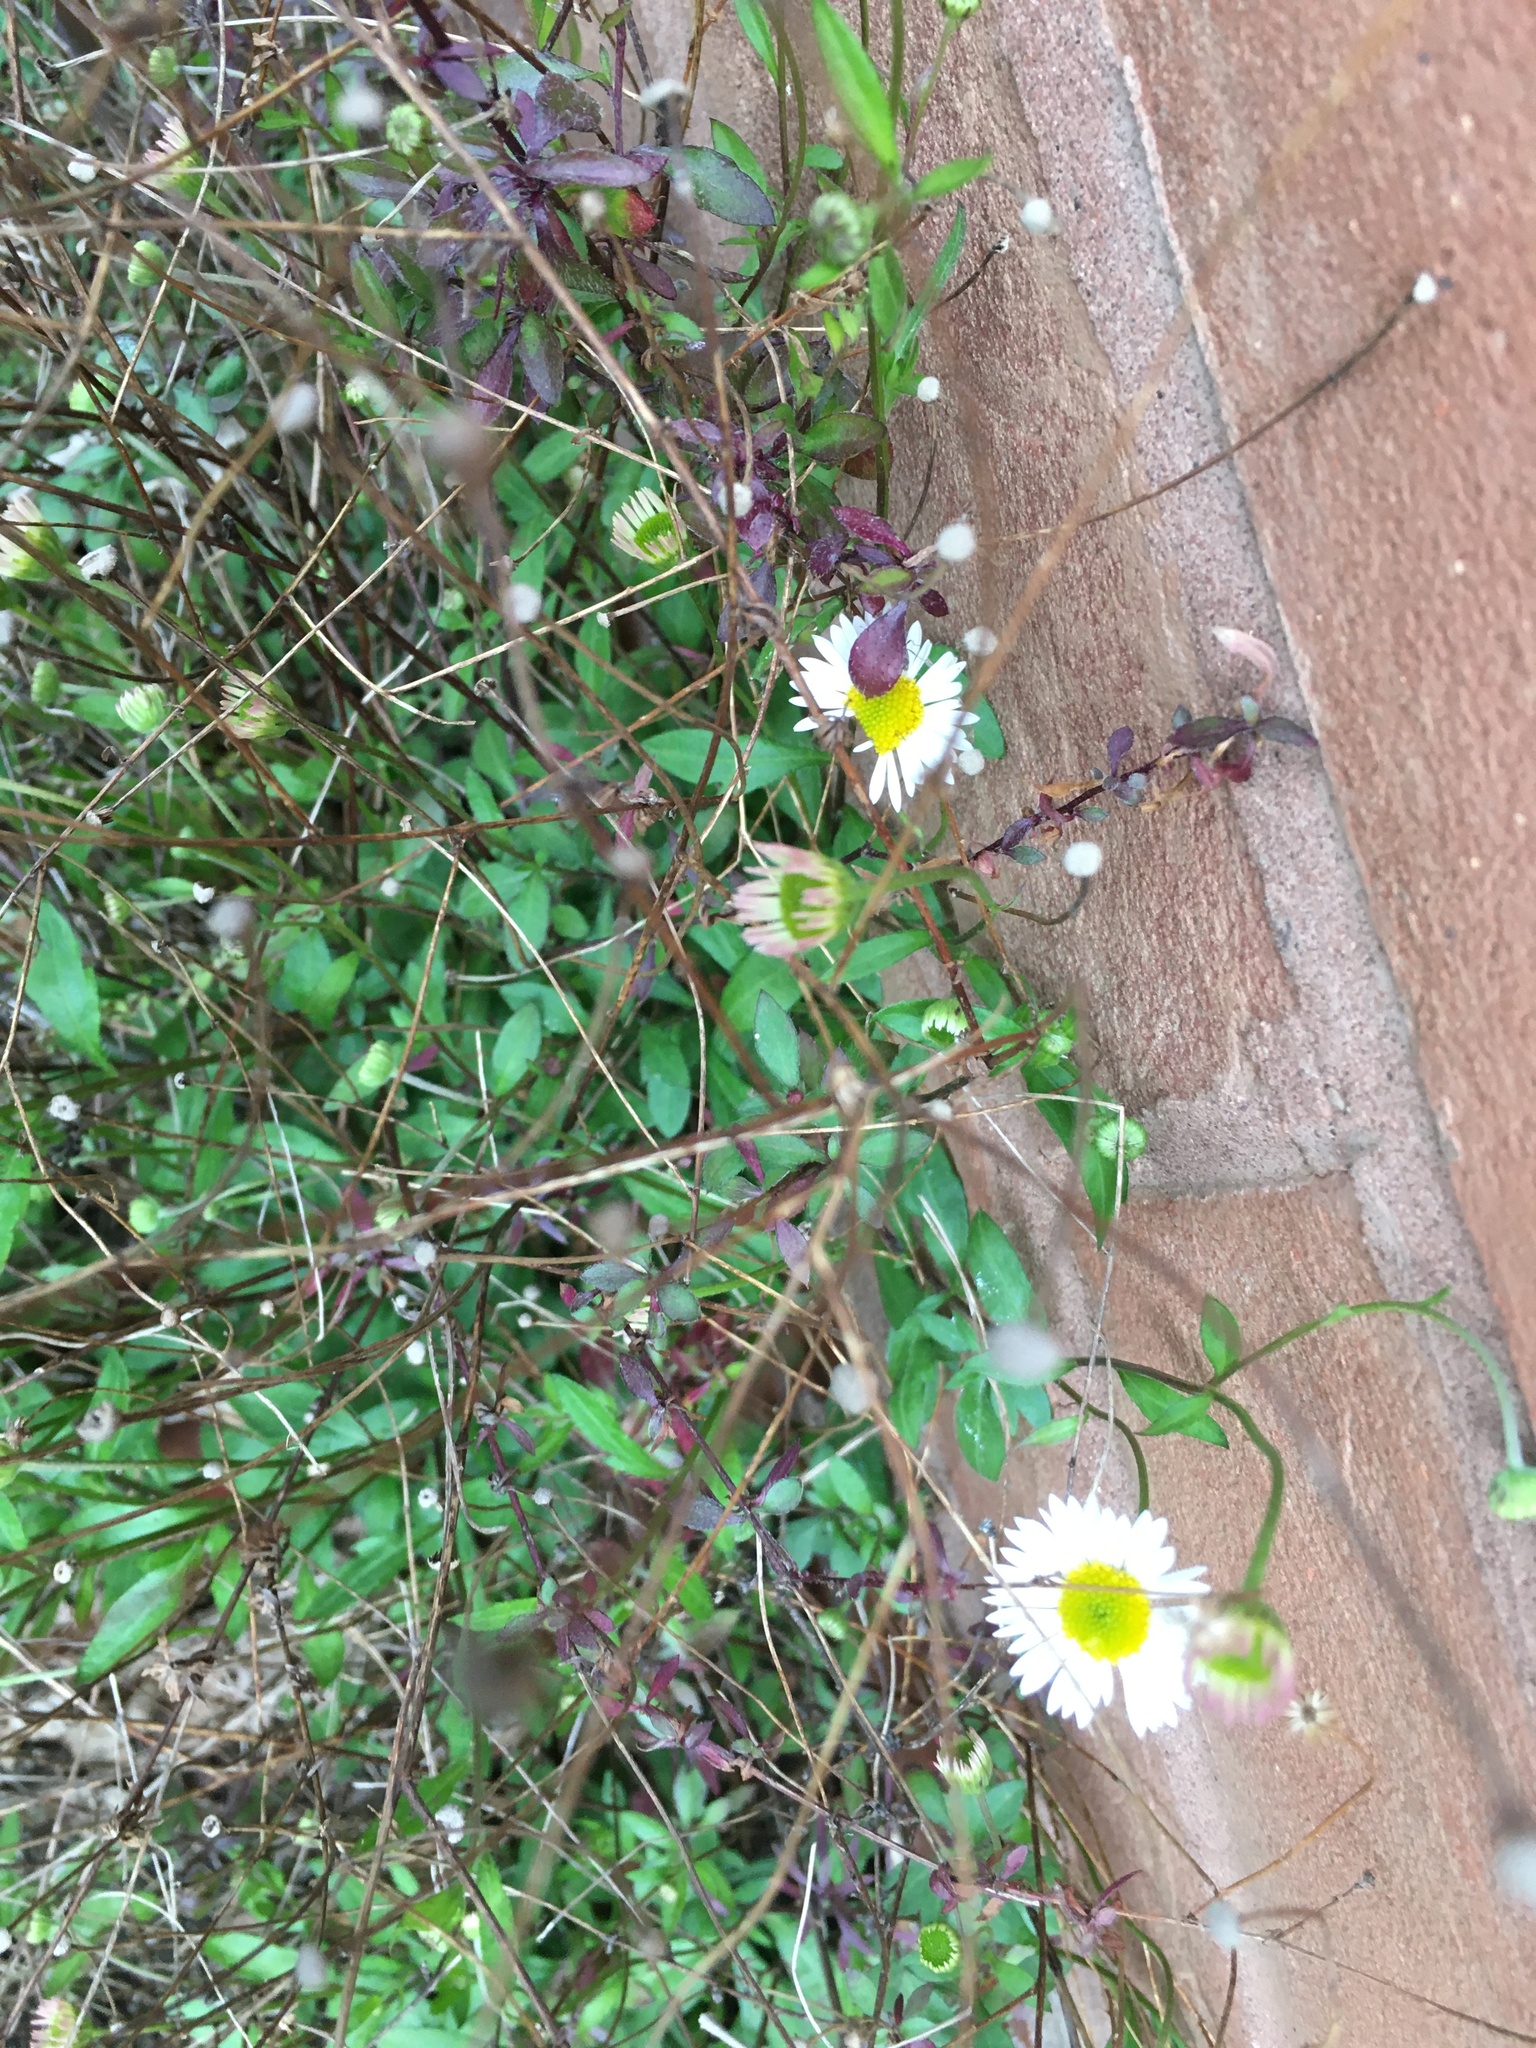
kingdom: Plantae
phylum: Tracheophyta
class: Magnoliopsida
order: Asterales
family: Asteraceae
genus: Erigeron
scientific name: Erigeron karvinskianus
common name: Mexican fleabane
